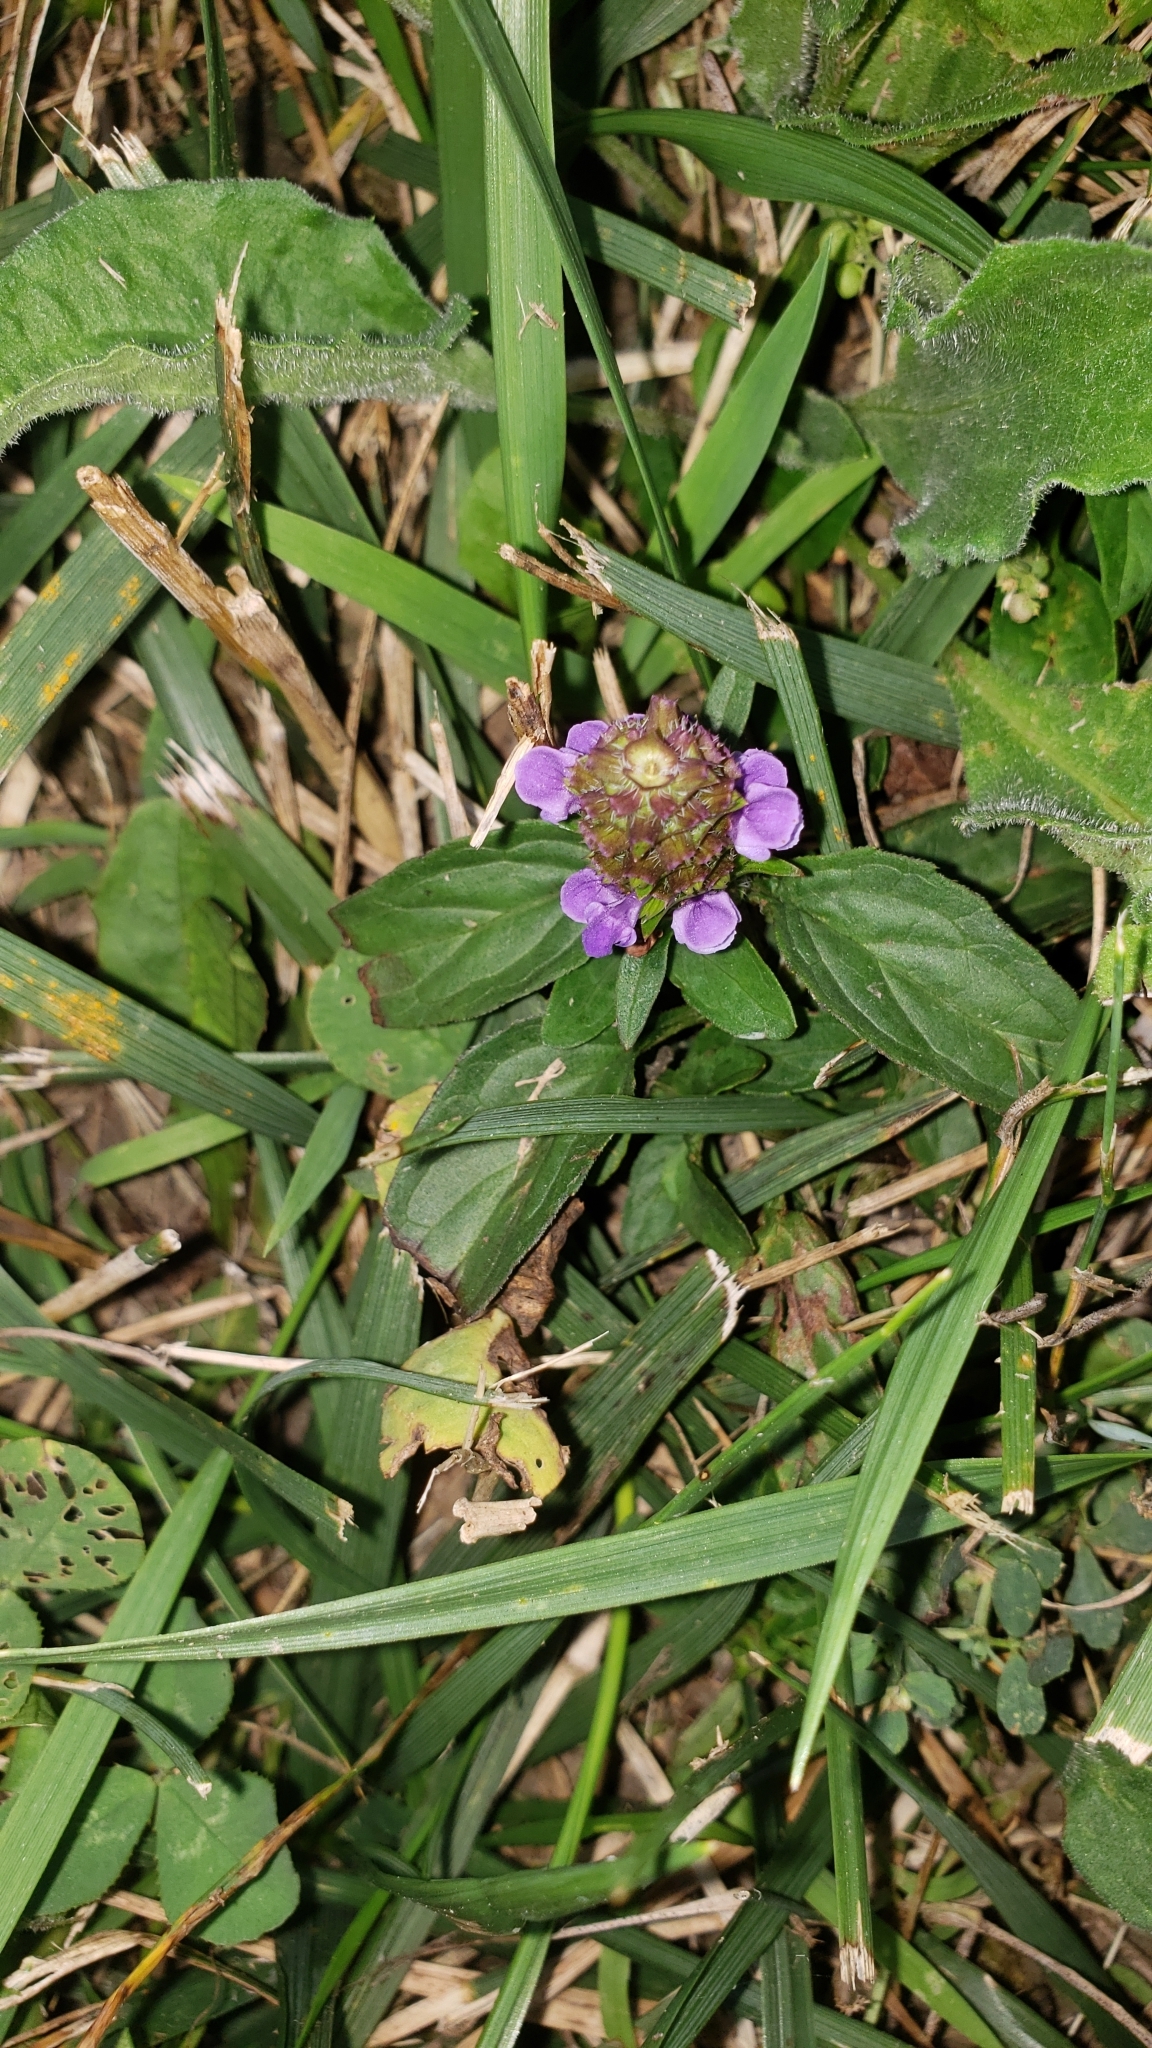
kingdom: Plantae
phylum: Tracheophyta
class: Magnoliopsida
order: Lamiales
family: Lamiaceae
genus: Prunella
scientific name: Prunella vulgaris
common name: Heal-all
